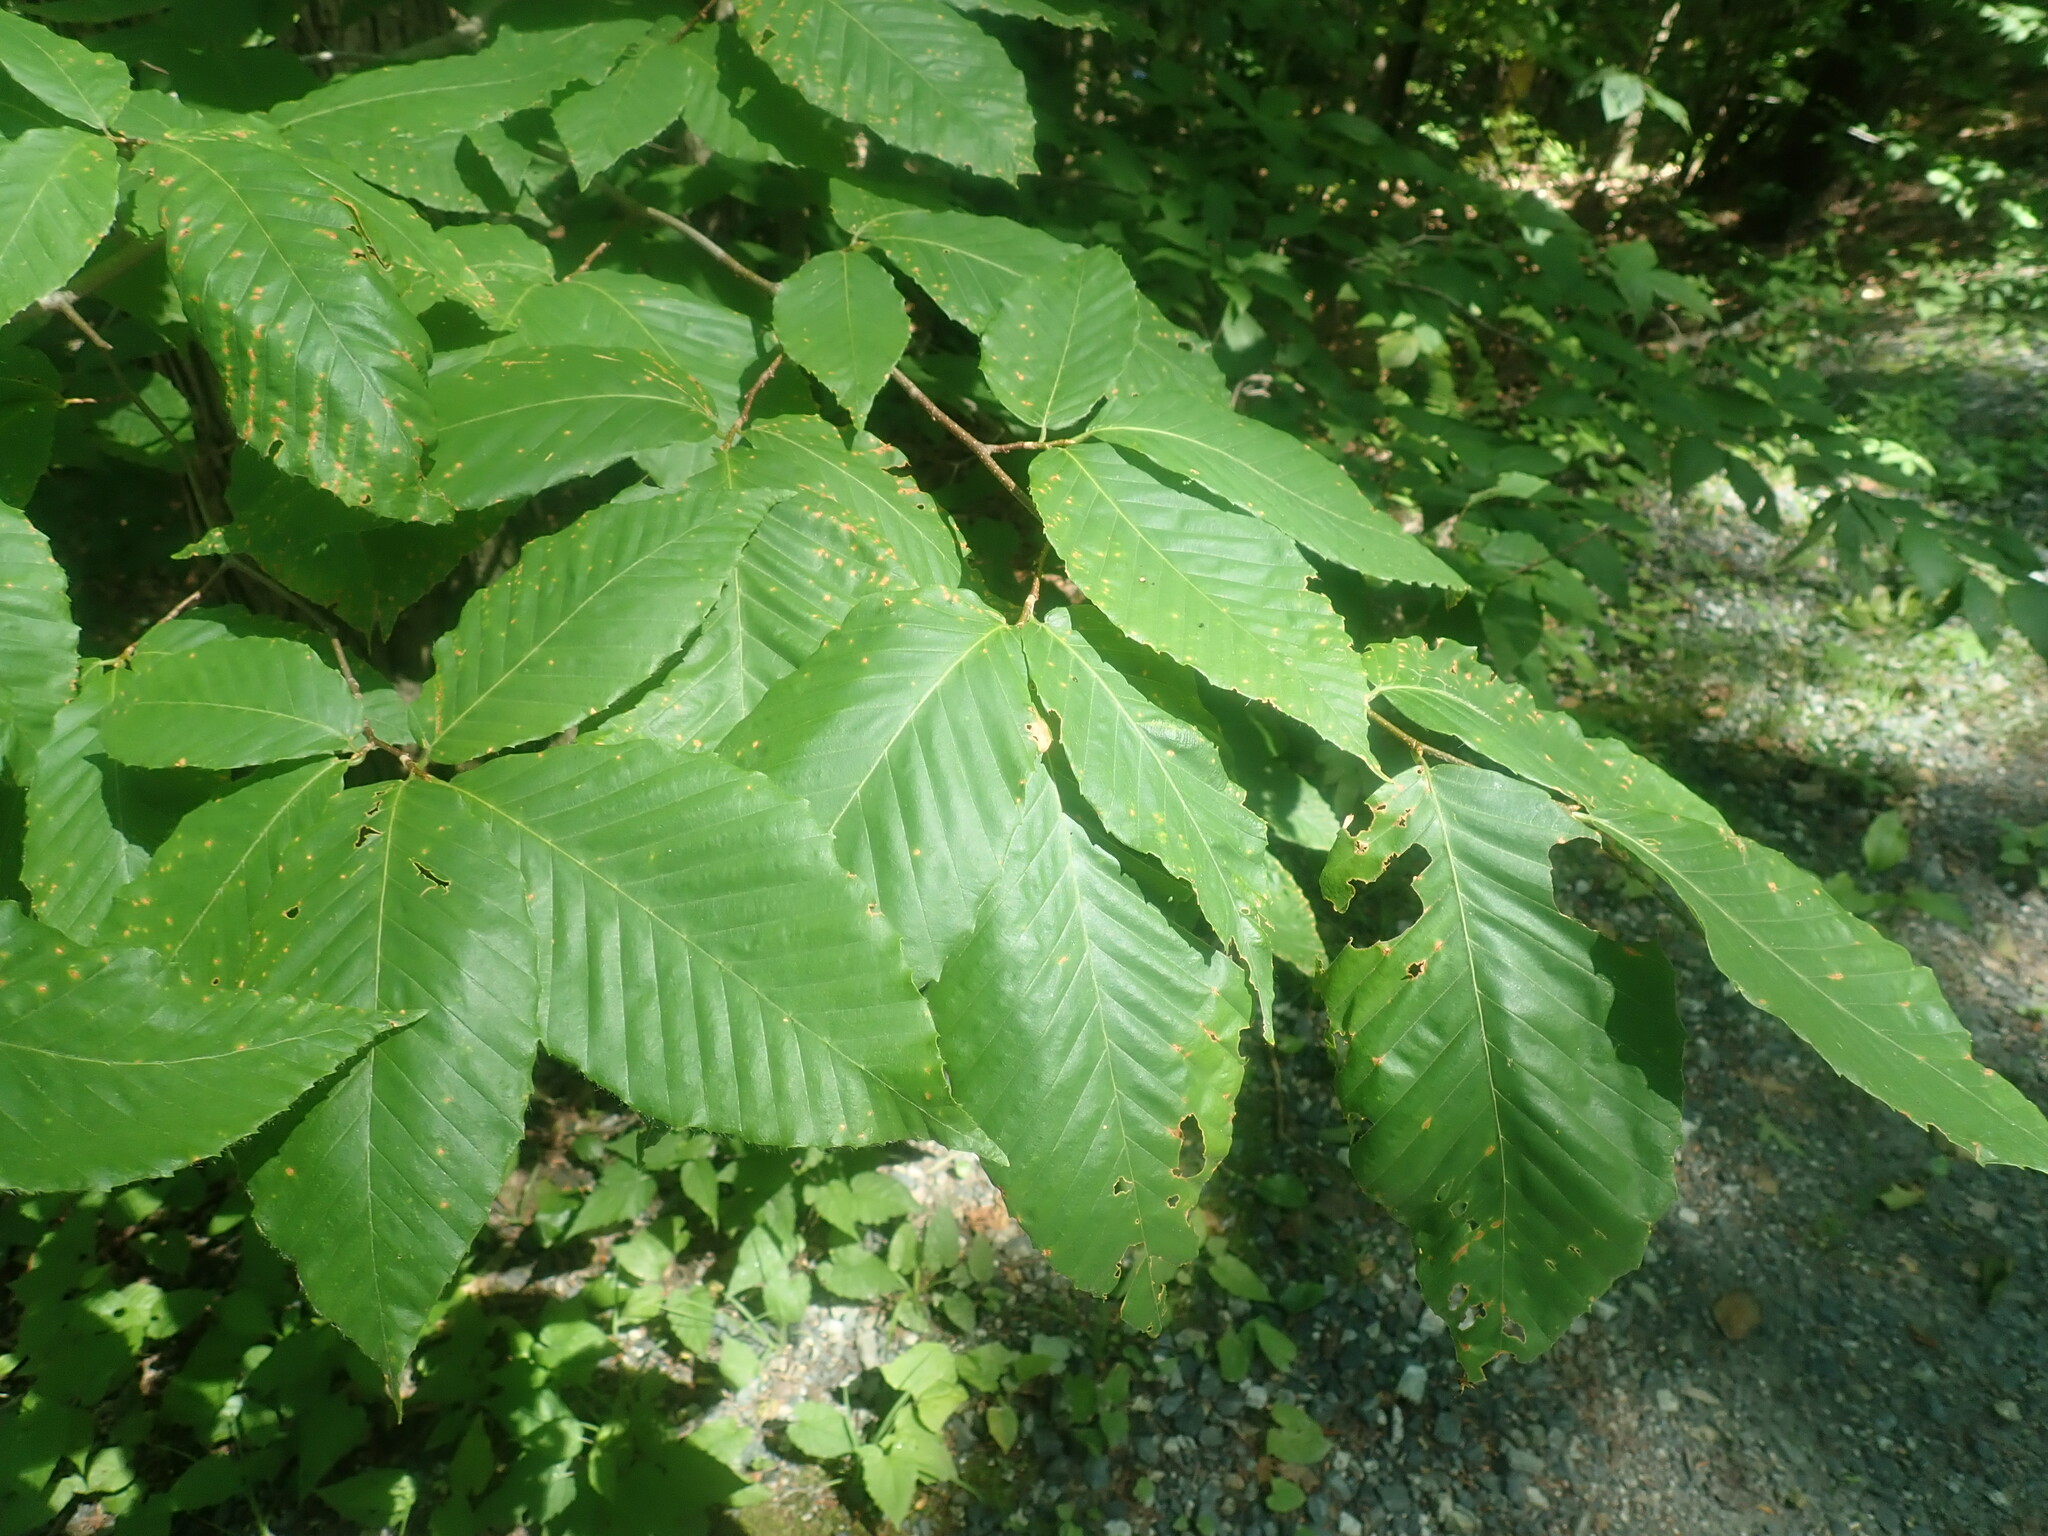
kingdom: Plantae
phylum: Tracheophyta
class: Magnoliopsida
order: Fagales
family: Fagaceae
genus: Fagus
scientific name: Fagus grandifolia
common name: American beech
